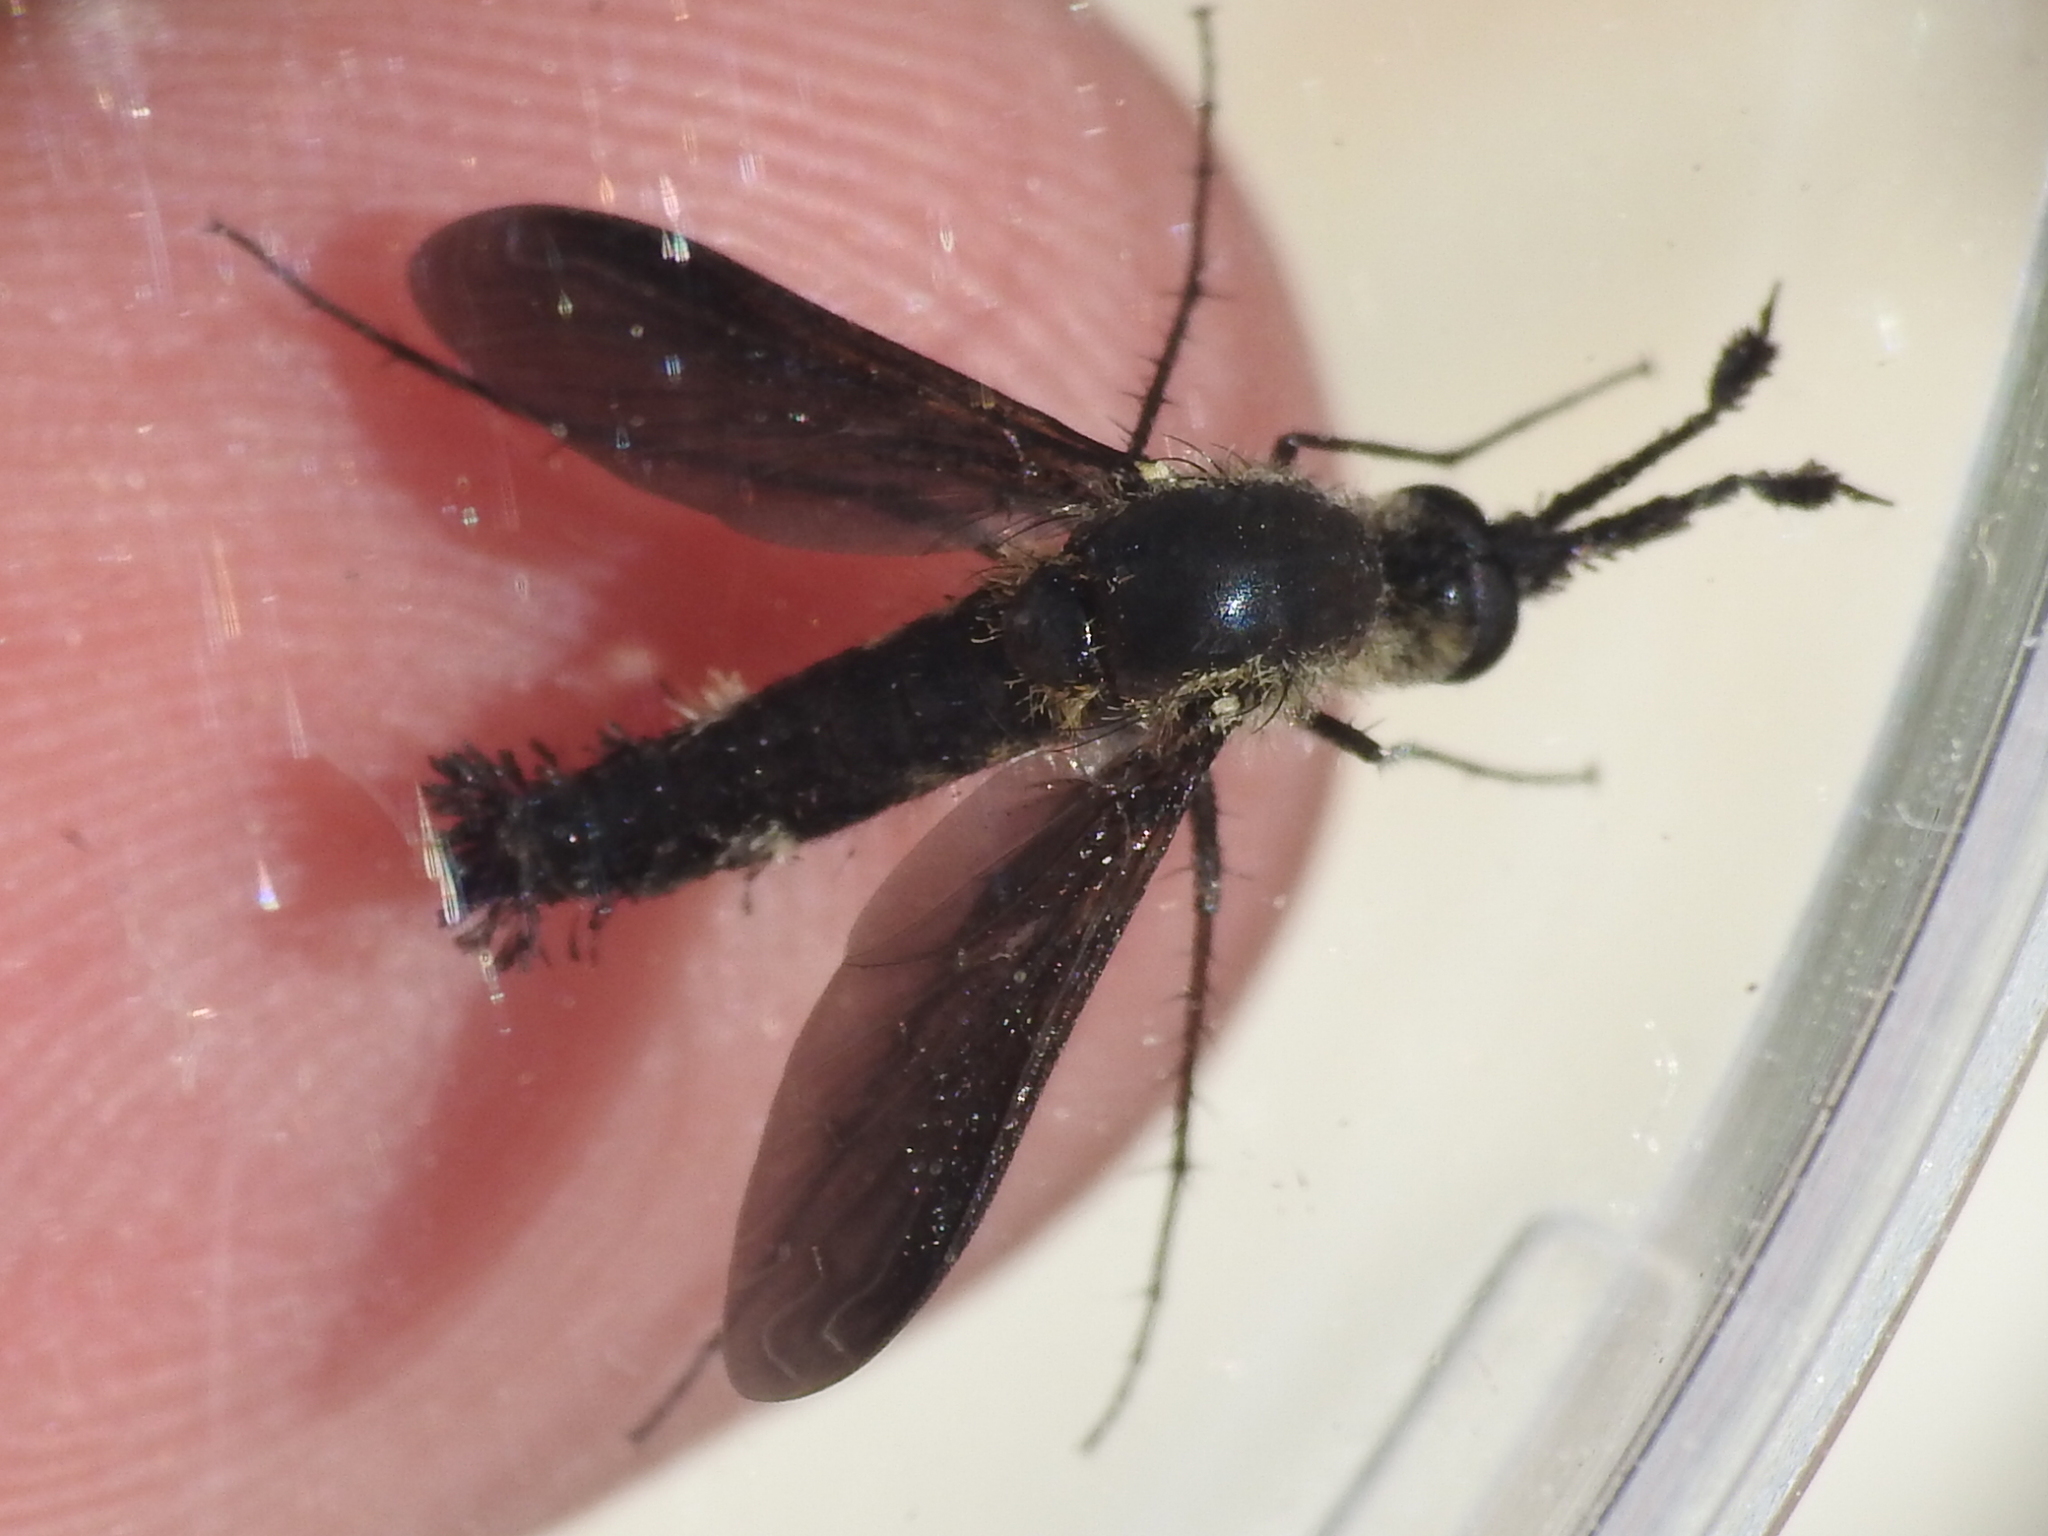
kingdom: Animalia
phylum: Arthropoda
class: Insecta
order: Diptera
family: Bombyliidae
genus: Lepidophora
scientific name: Lepidophora lepidocera
